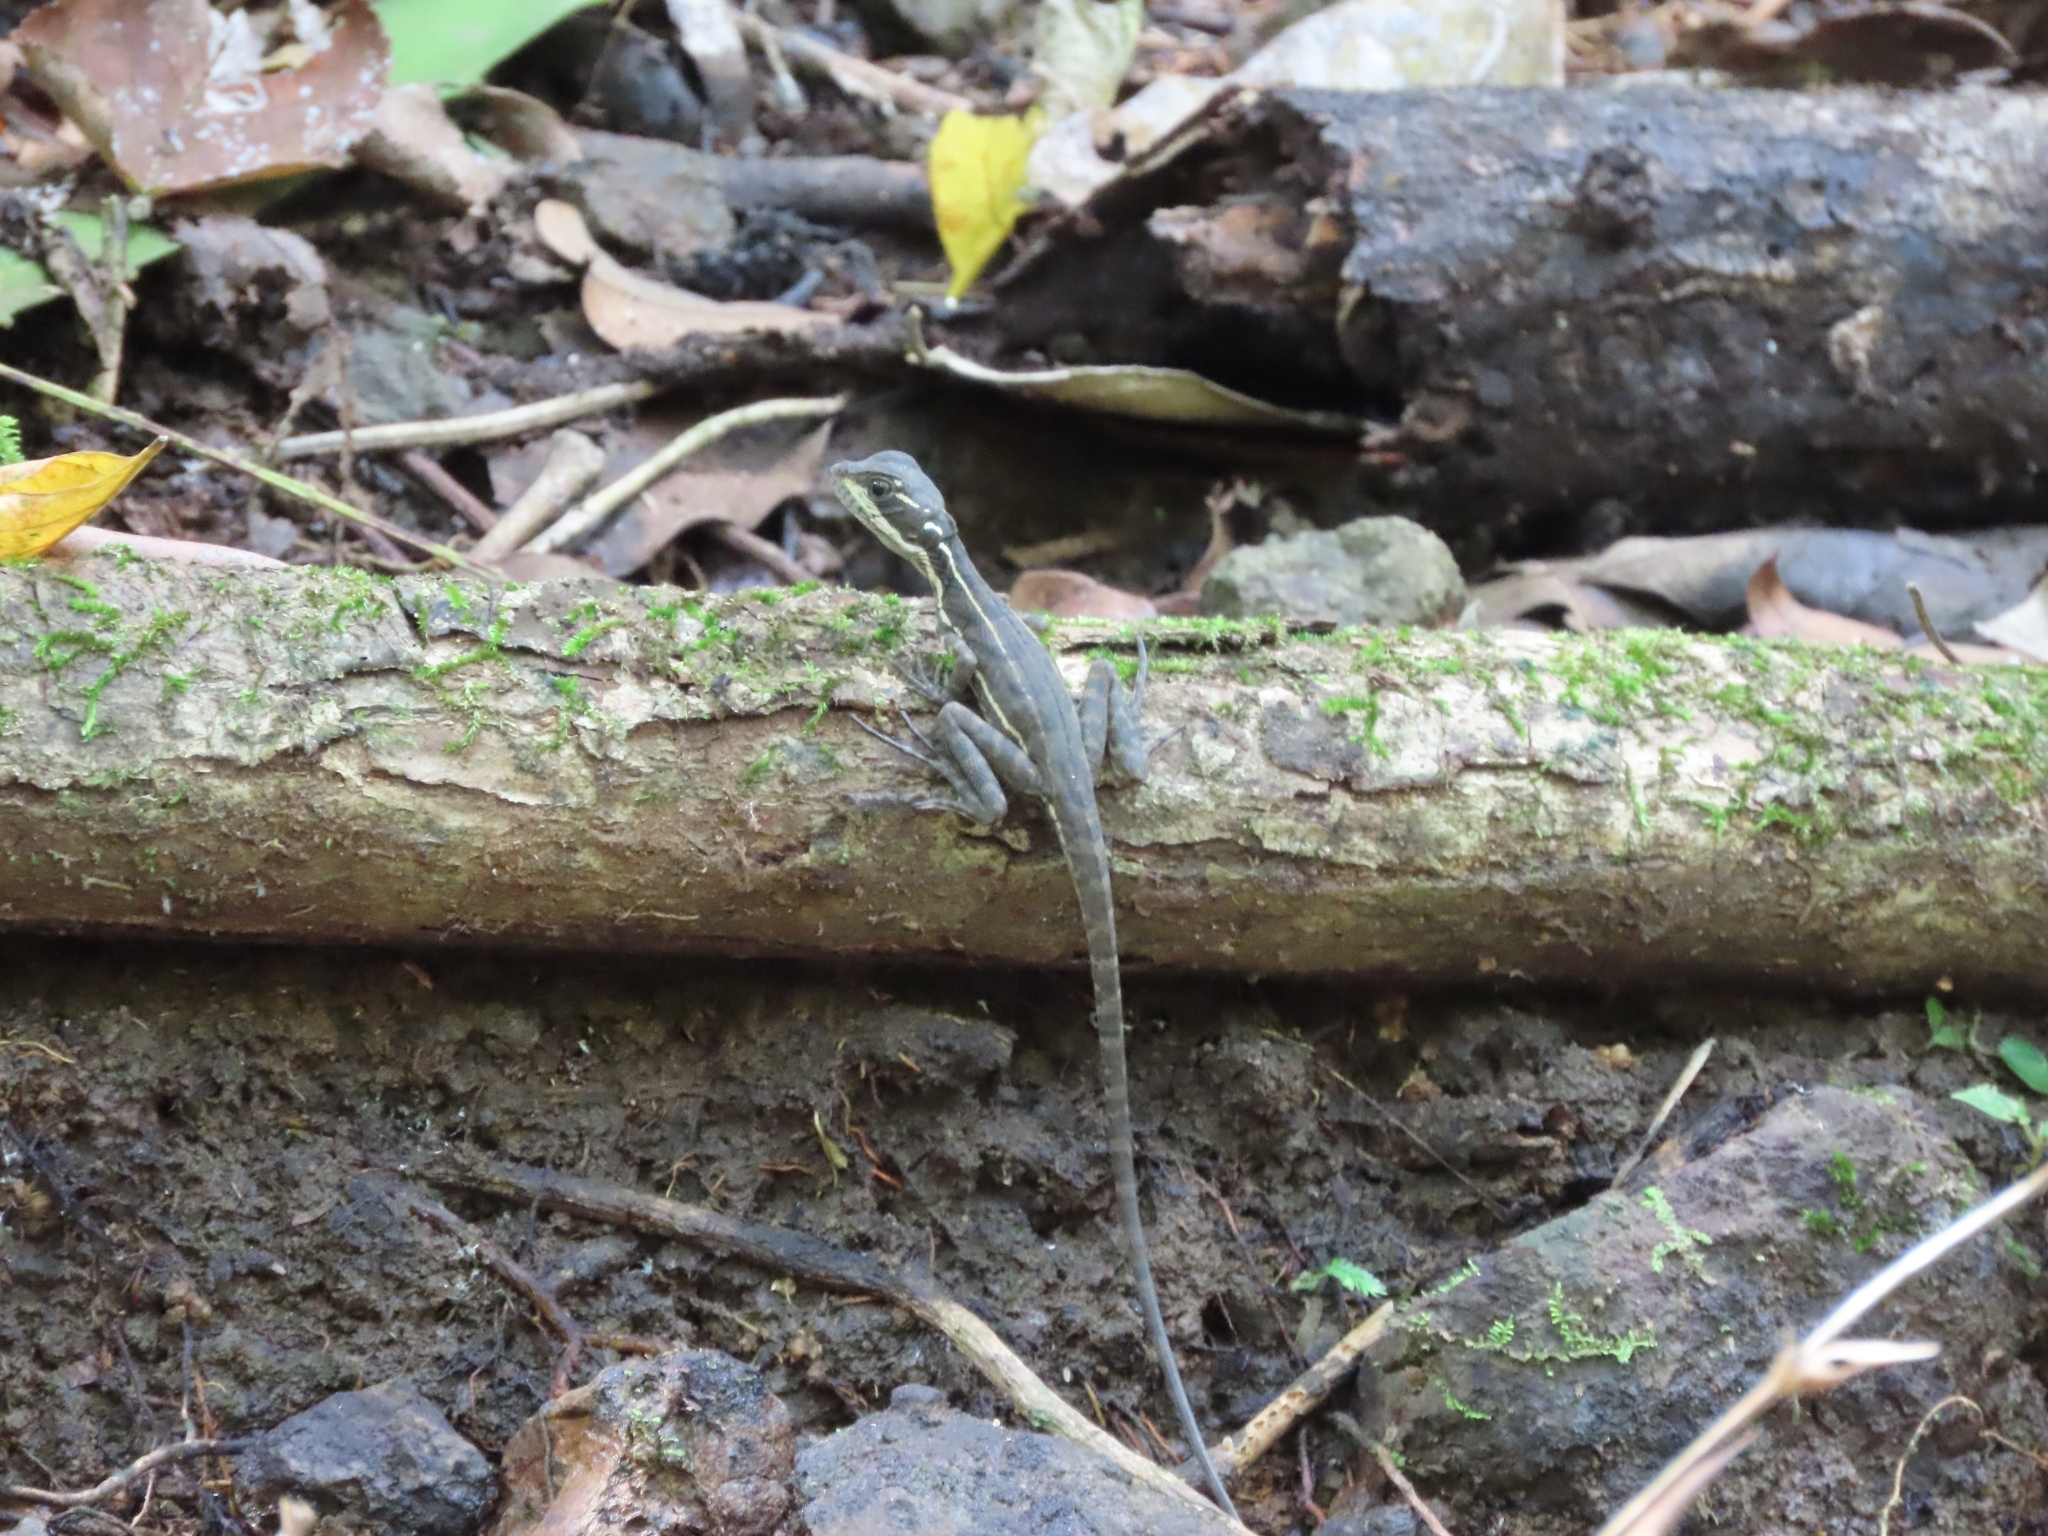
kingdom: Animalia
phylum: Chordata
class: Squamata
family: Corytophanidae
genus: Basiliscus
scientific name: Basiliscus basiliscus
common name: Common basilisk
